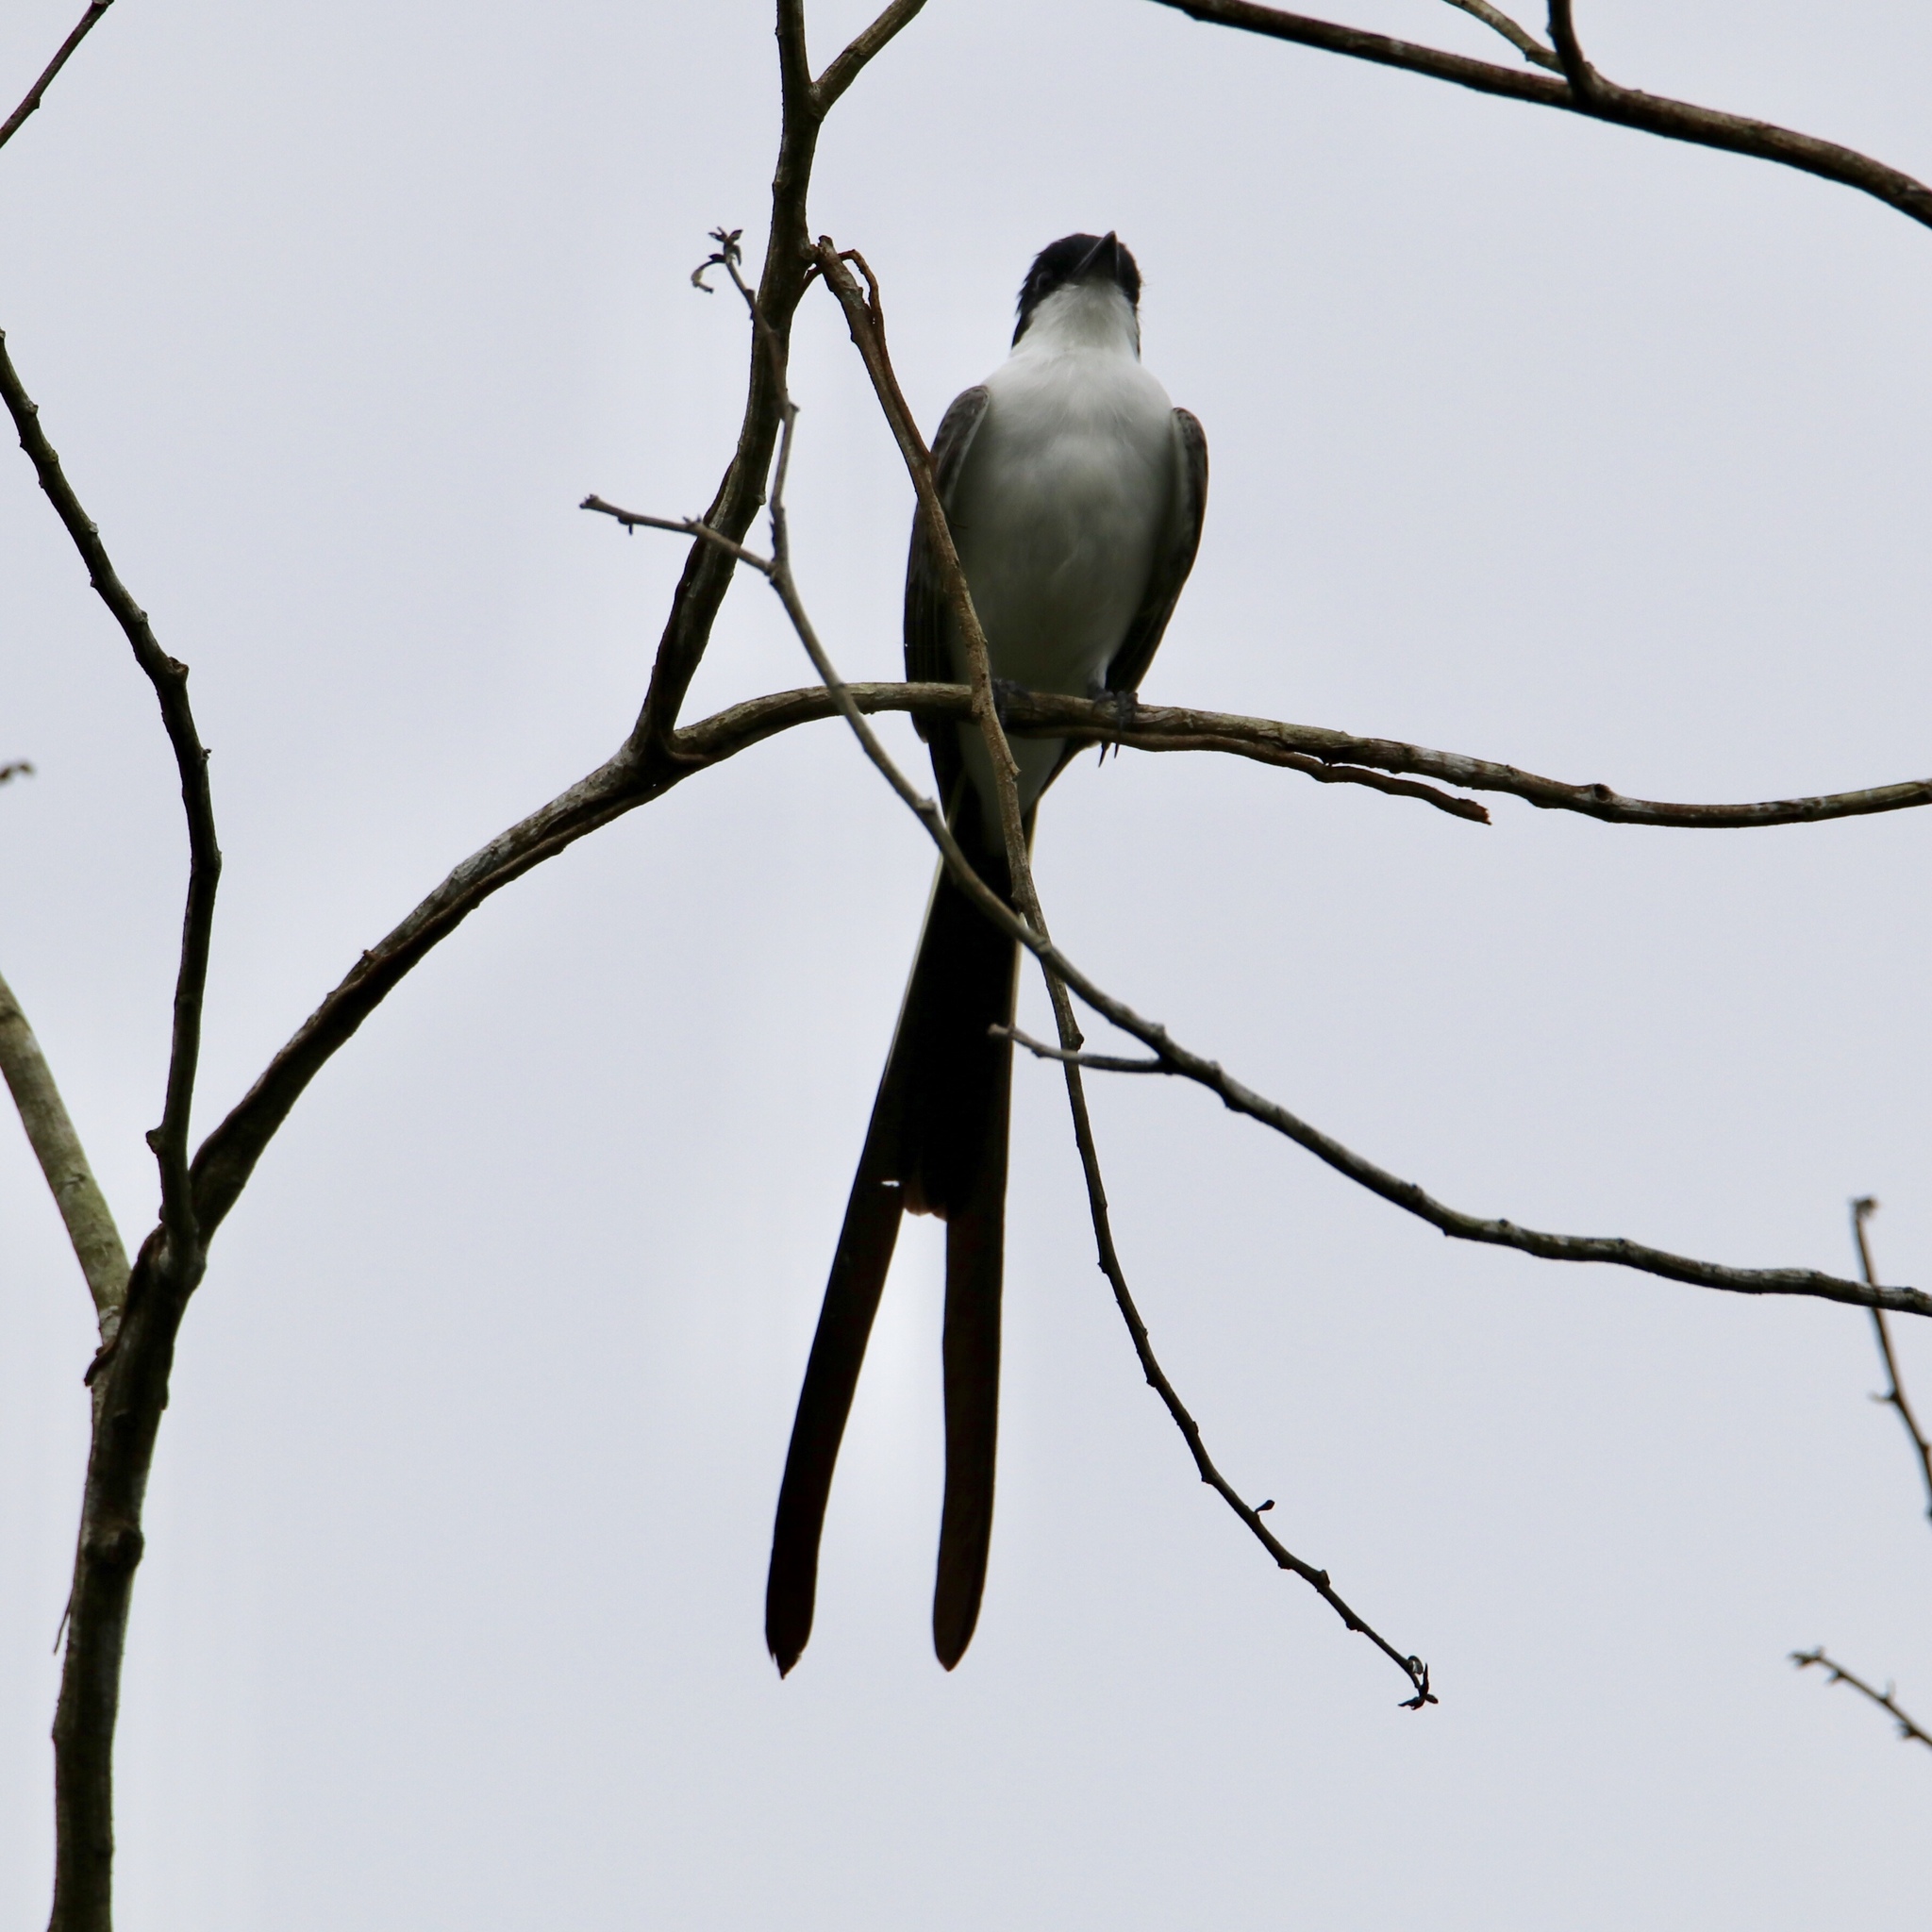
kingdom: Animalia
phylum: Chordata
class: Aves
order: Passeriformes
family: Tyrannidae
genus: Tyrannus
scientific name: Tyrannus savana
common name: Fork-tailed flycatcher
